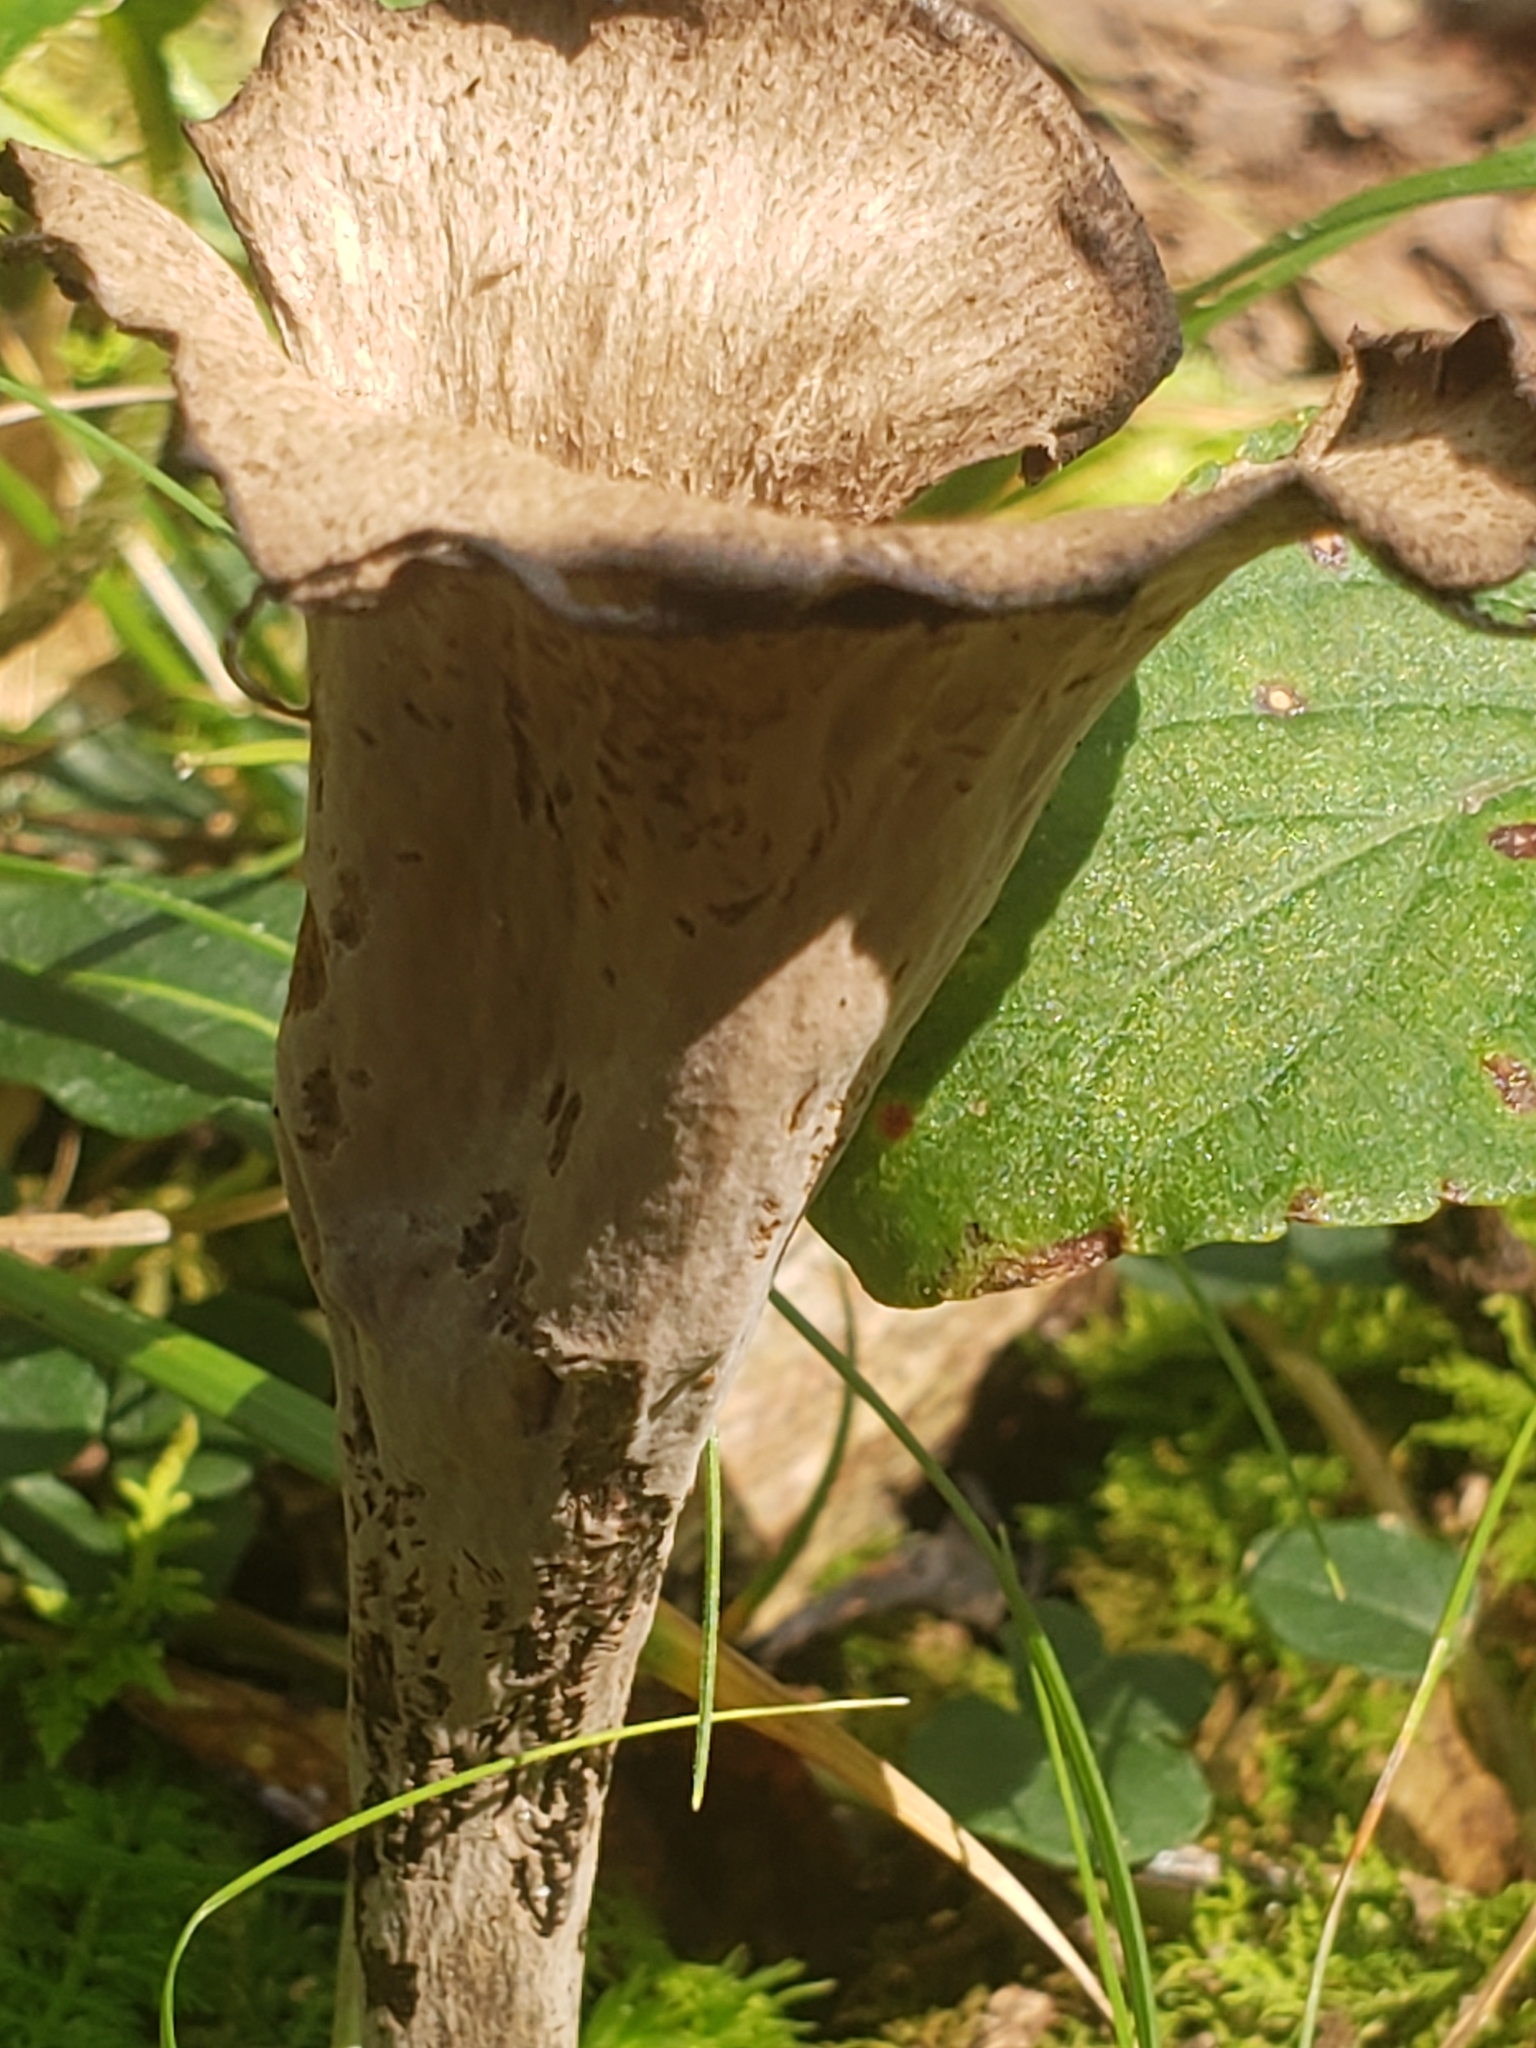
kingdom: Fungi
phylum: Basidiomycota
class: Agaricomycetes
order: Cantharellales
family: Hydnaceae
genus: Craterellus
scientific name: Craterellus cornucopioides
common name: Horn of plenty
